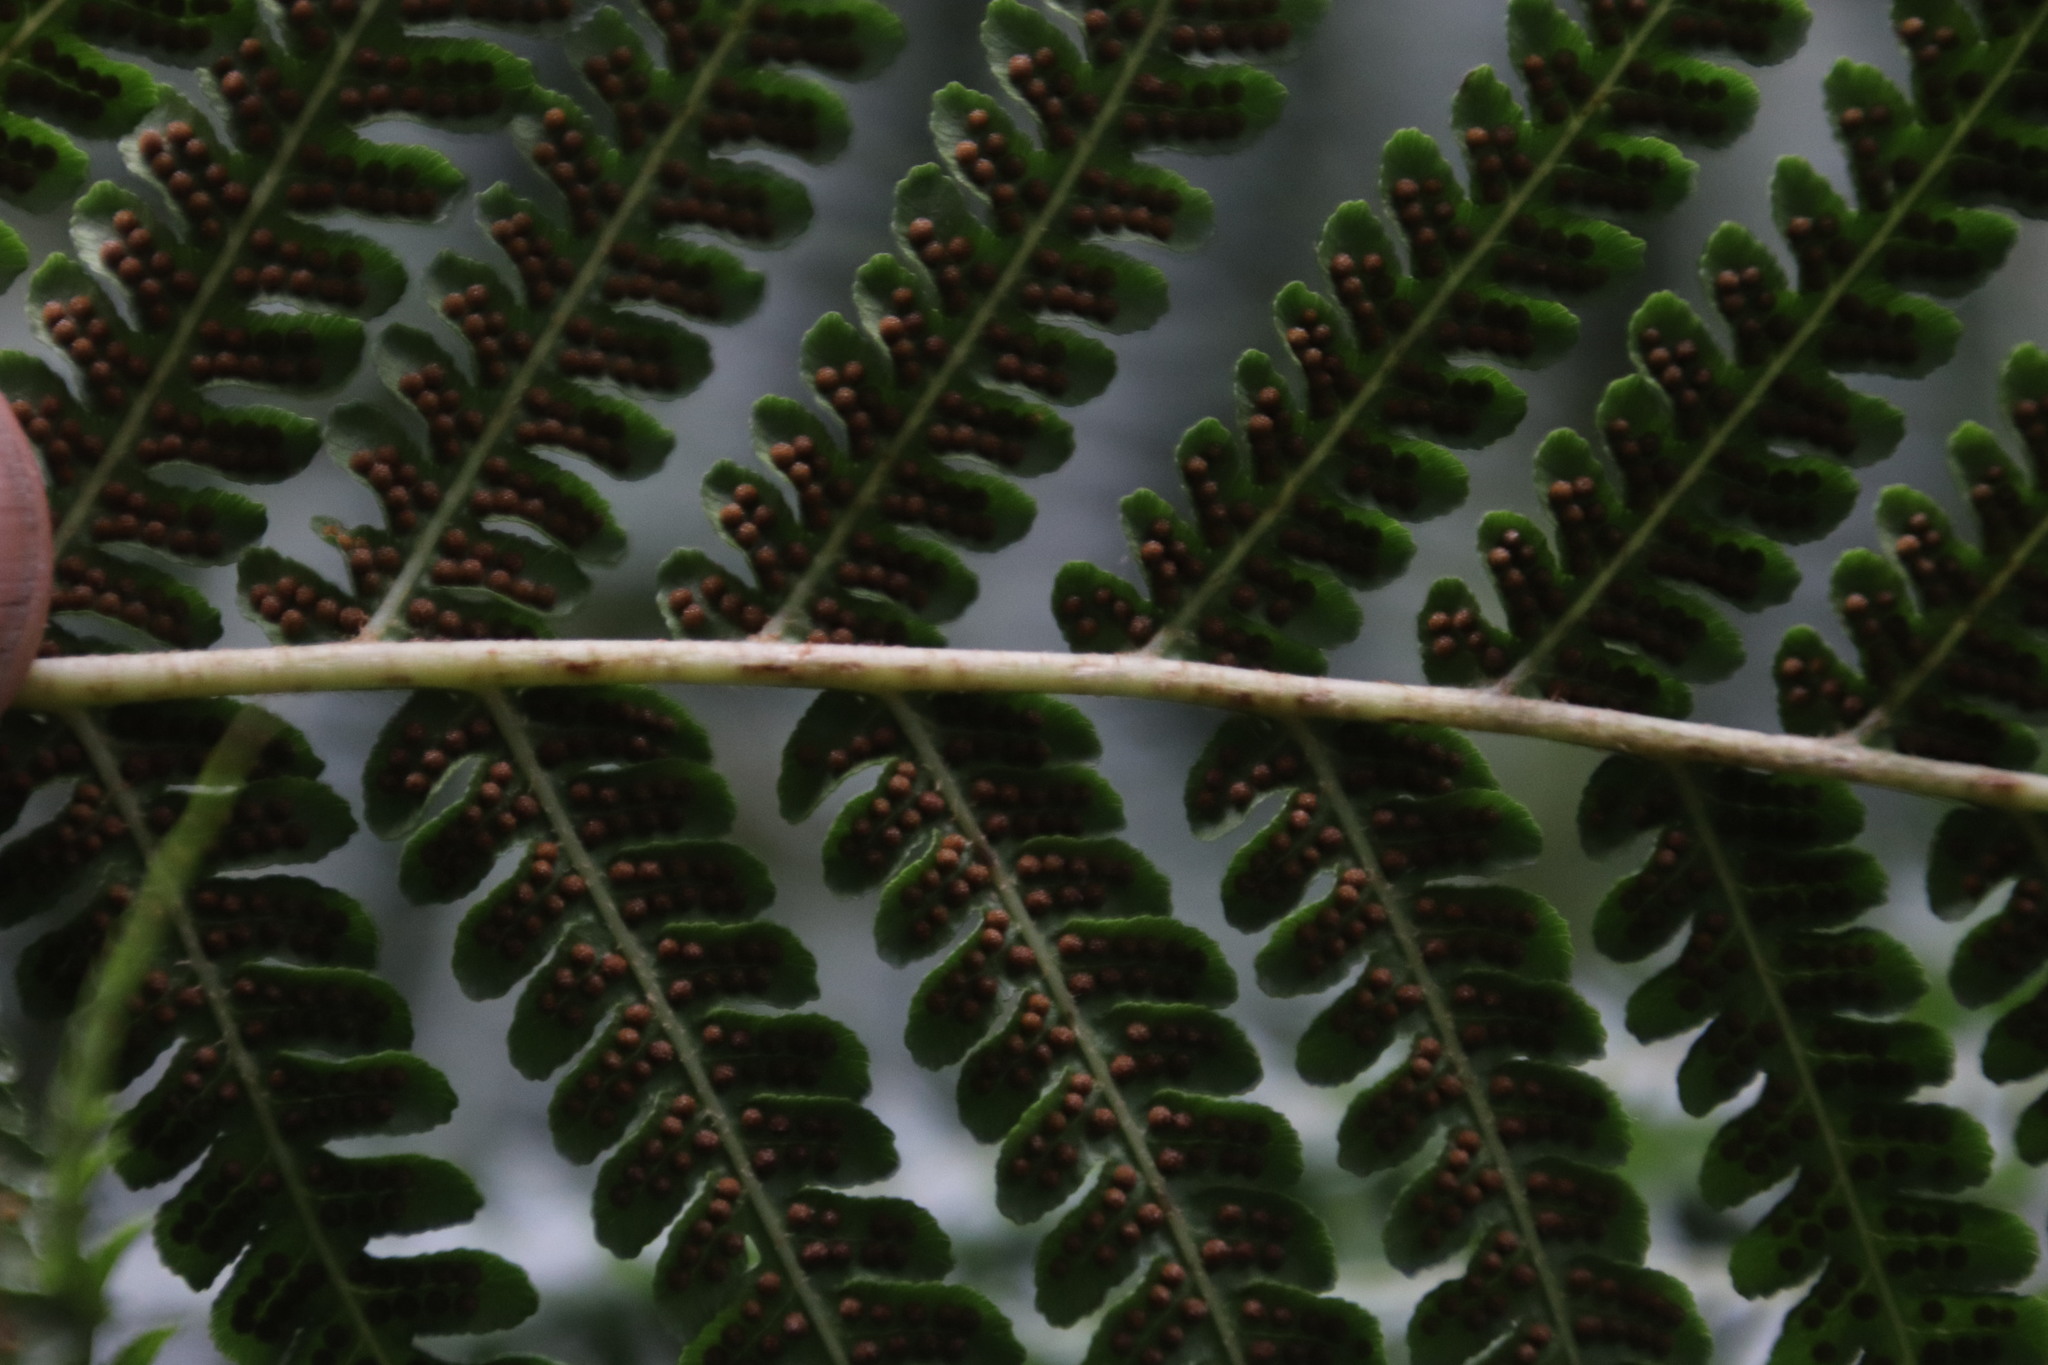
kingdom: Plantae
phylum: Tracheophyta
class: Polypodiopsida
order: Cyatheales
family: Cyatheaceae
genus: Sphaeropteris
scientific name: Sphaeropteris cooperi
